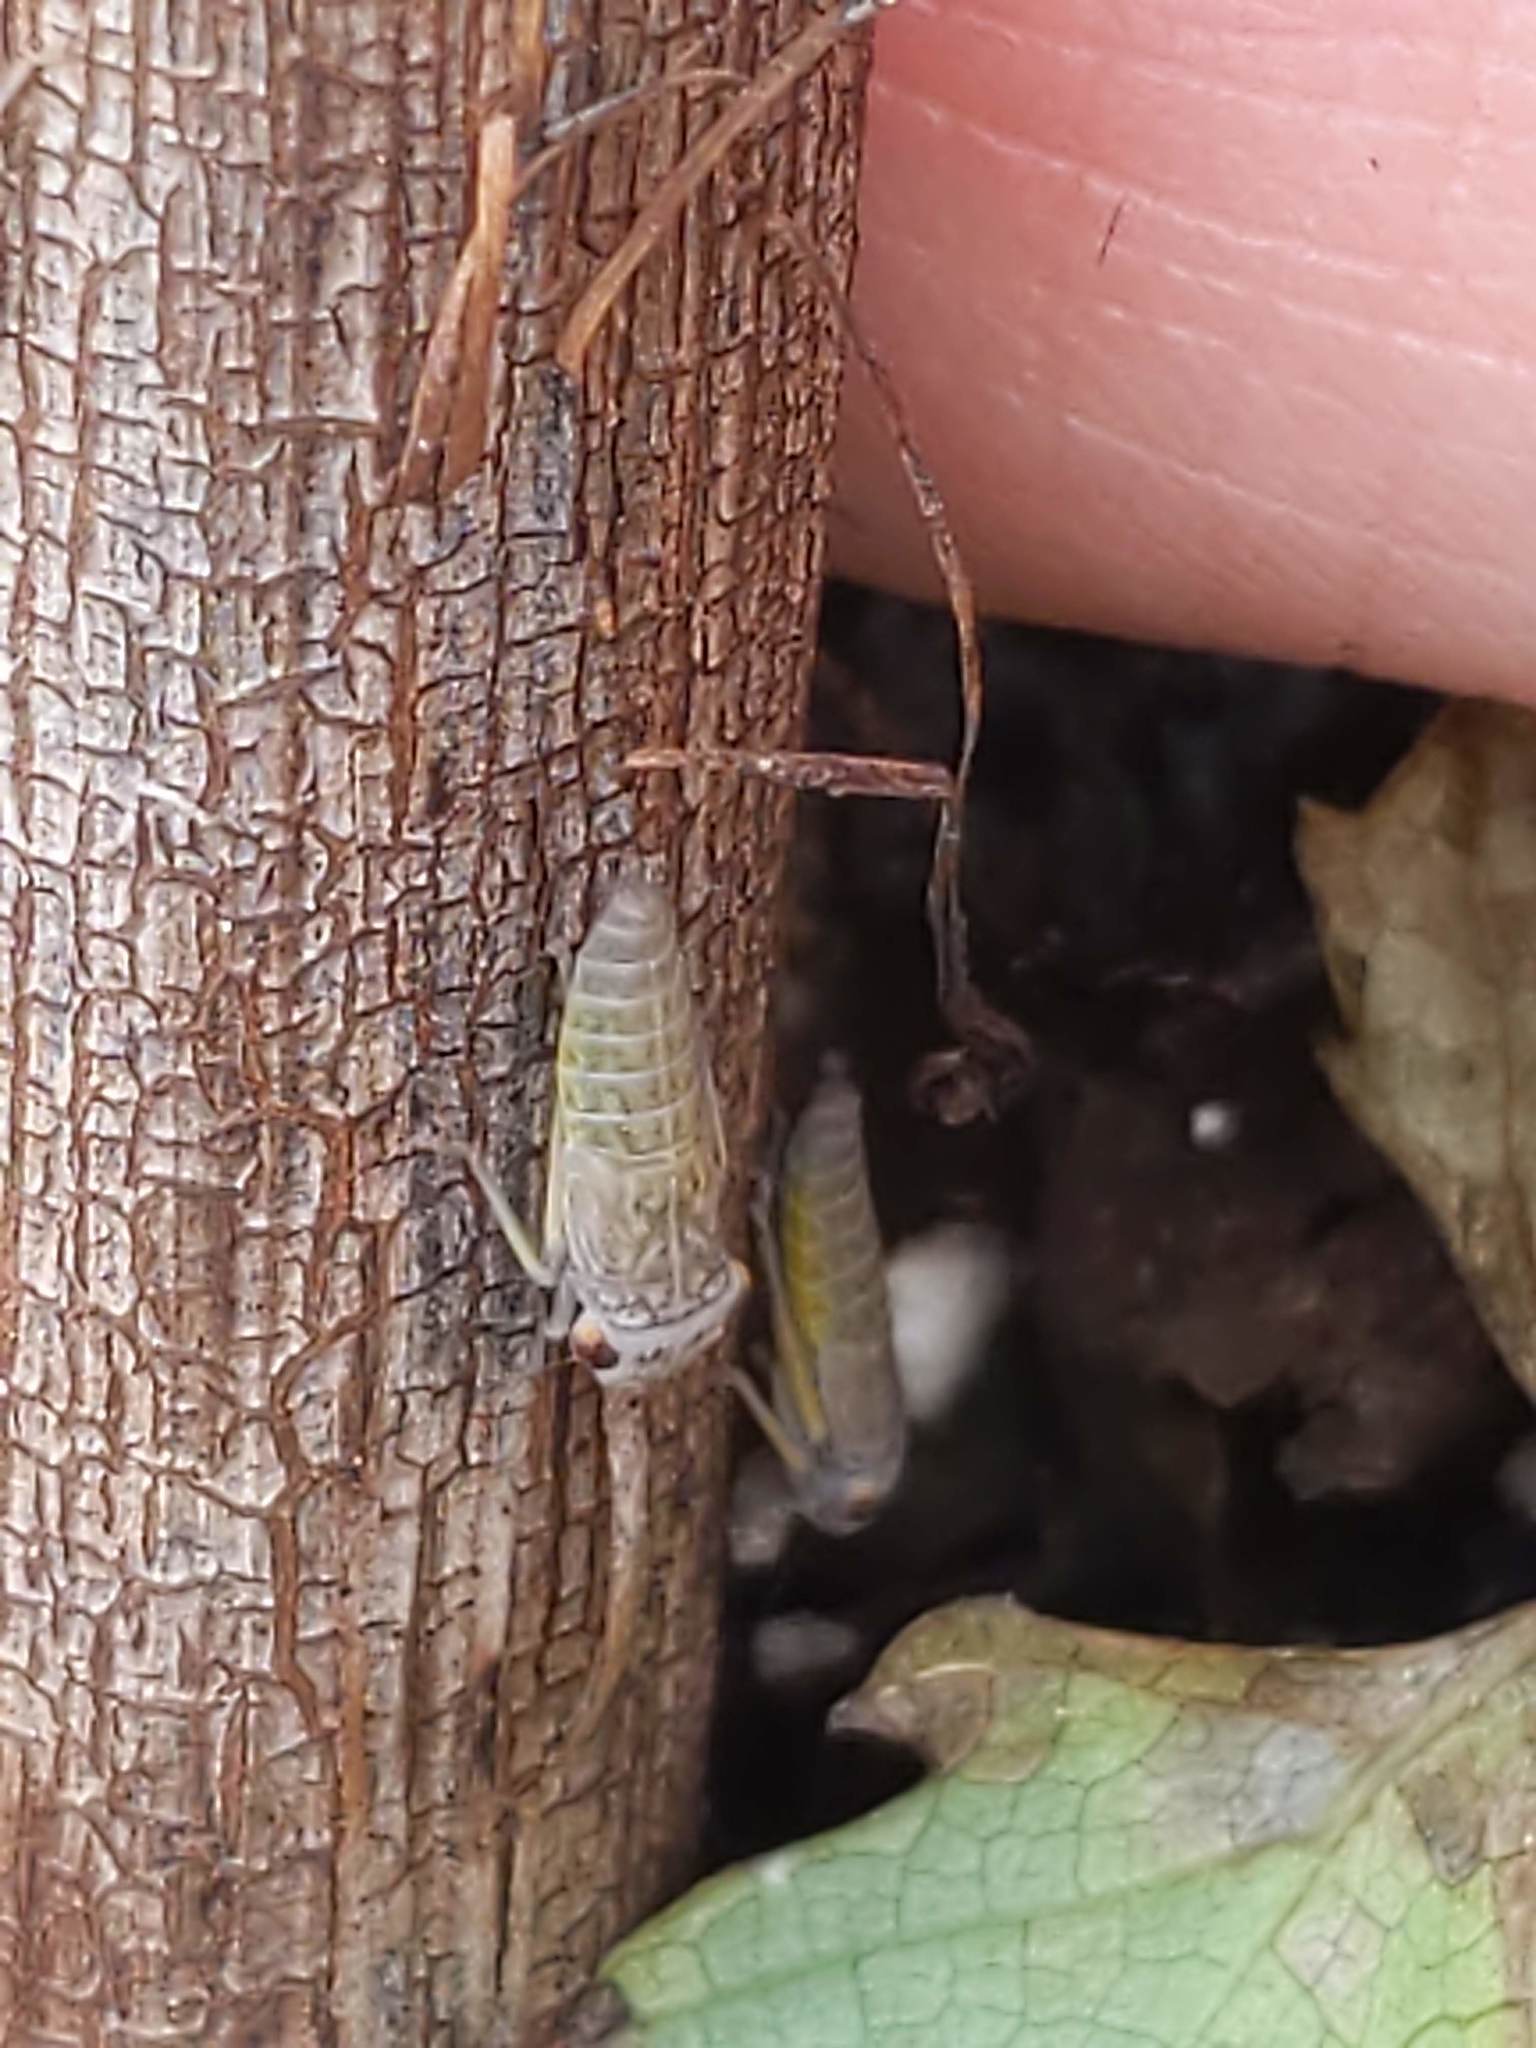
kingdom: Animalia
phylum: Arthropoda
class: Insecta
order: Hemiptera
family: Cicadellidae
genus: Oncometopia
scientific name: Oncometopia orbona
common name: Broad-headed sharpshooter
